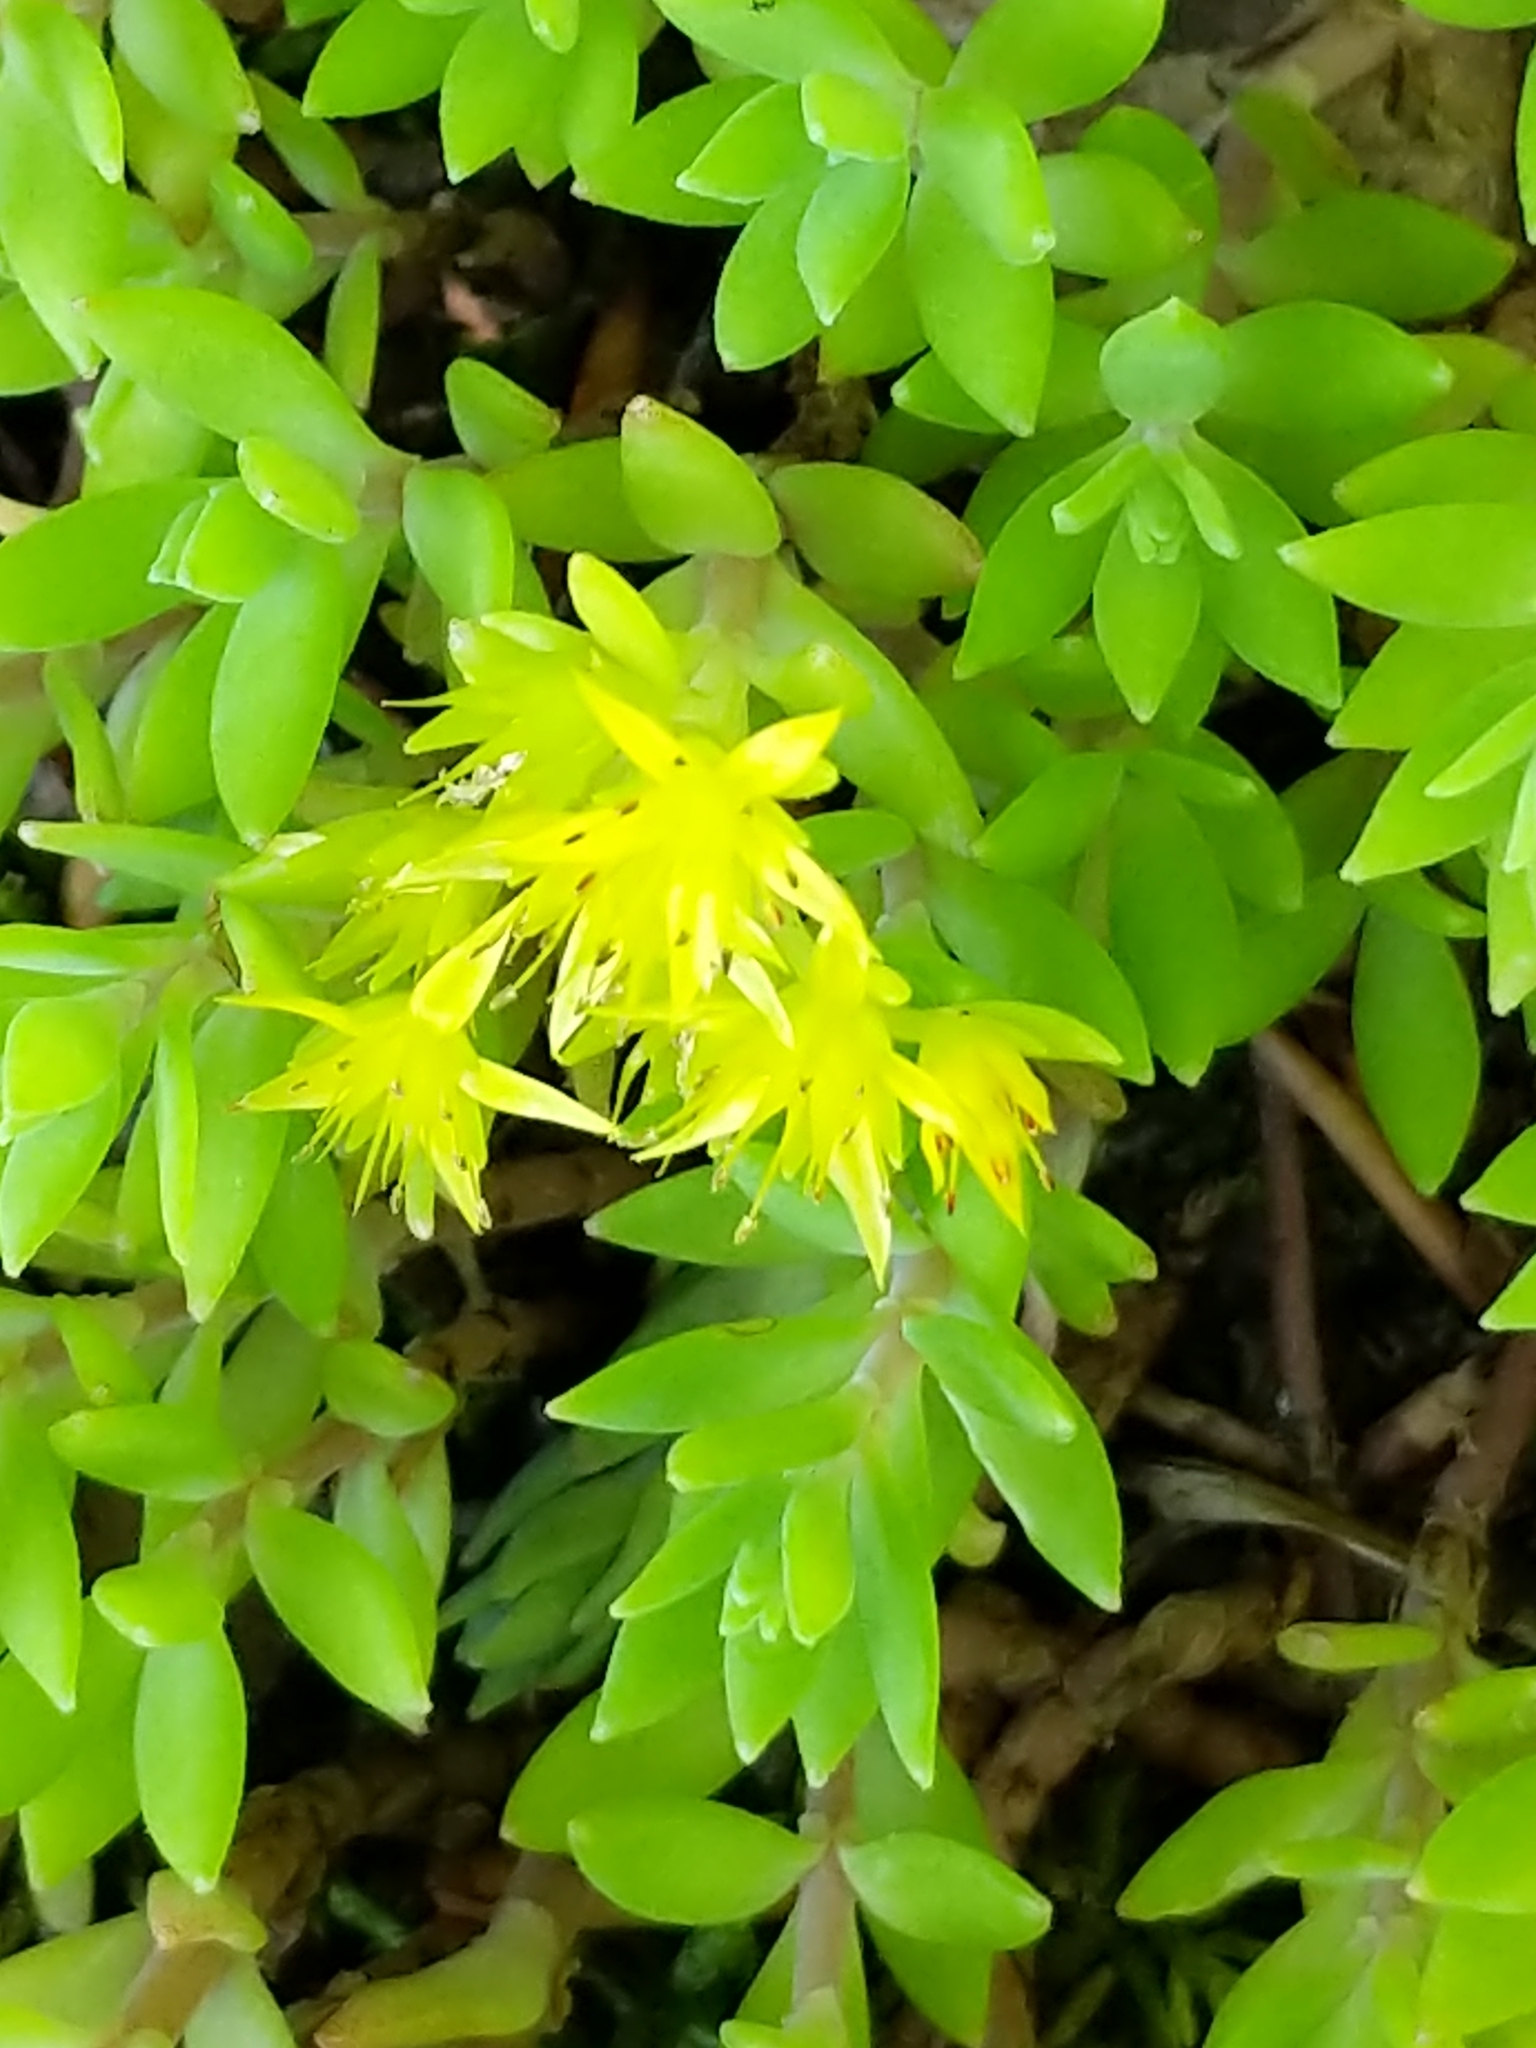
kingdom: Plantae
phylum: Tracheophyta
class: Magnoliopsida
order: Saxifragales
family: Crassulaceae
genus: Sedum
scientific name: Sedum sarmentosum
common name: Stringy stonecrop
